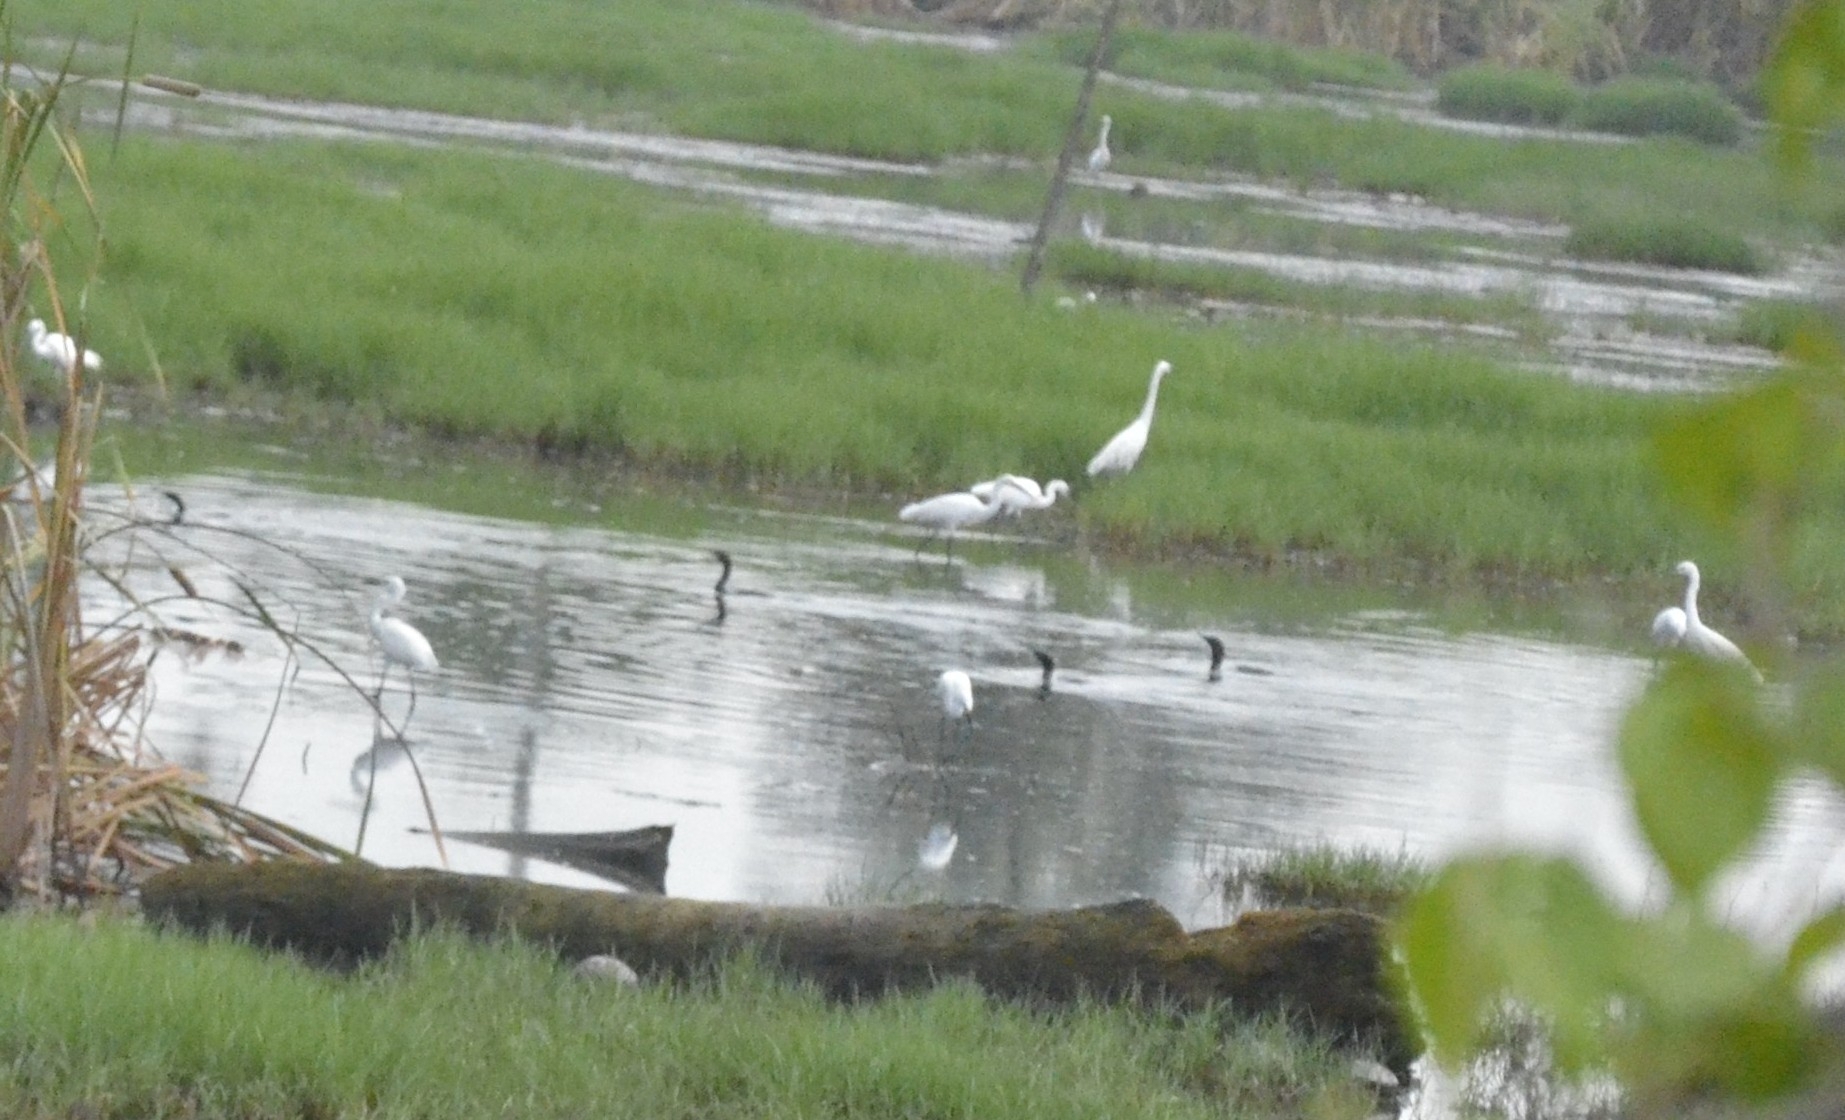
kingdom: Animalia
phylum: Chordata
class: Aves
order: Pelecaniformes
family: Ardeidae
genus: Egretta
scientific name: Egretta garzetta
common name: Little egret
